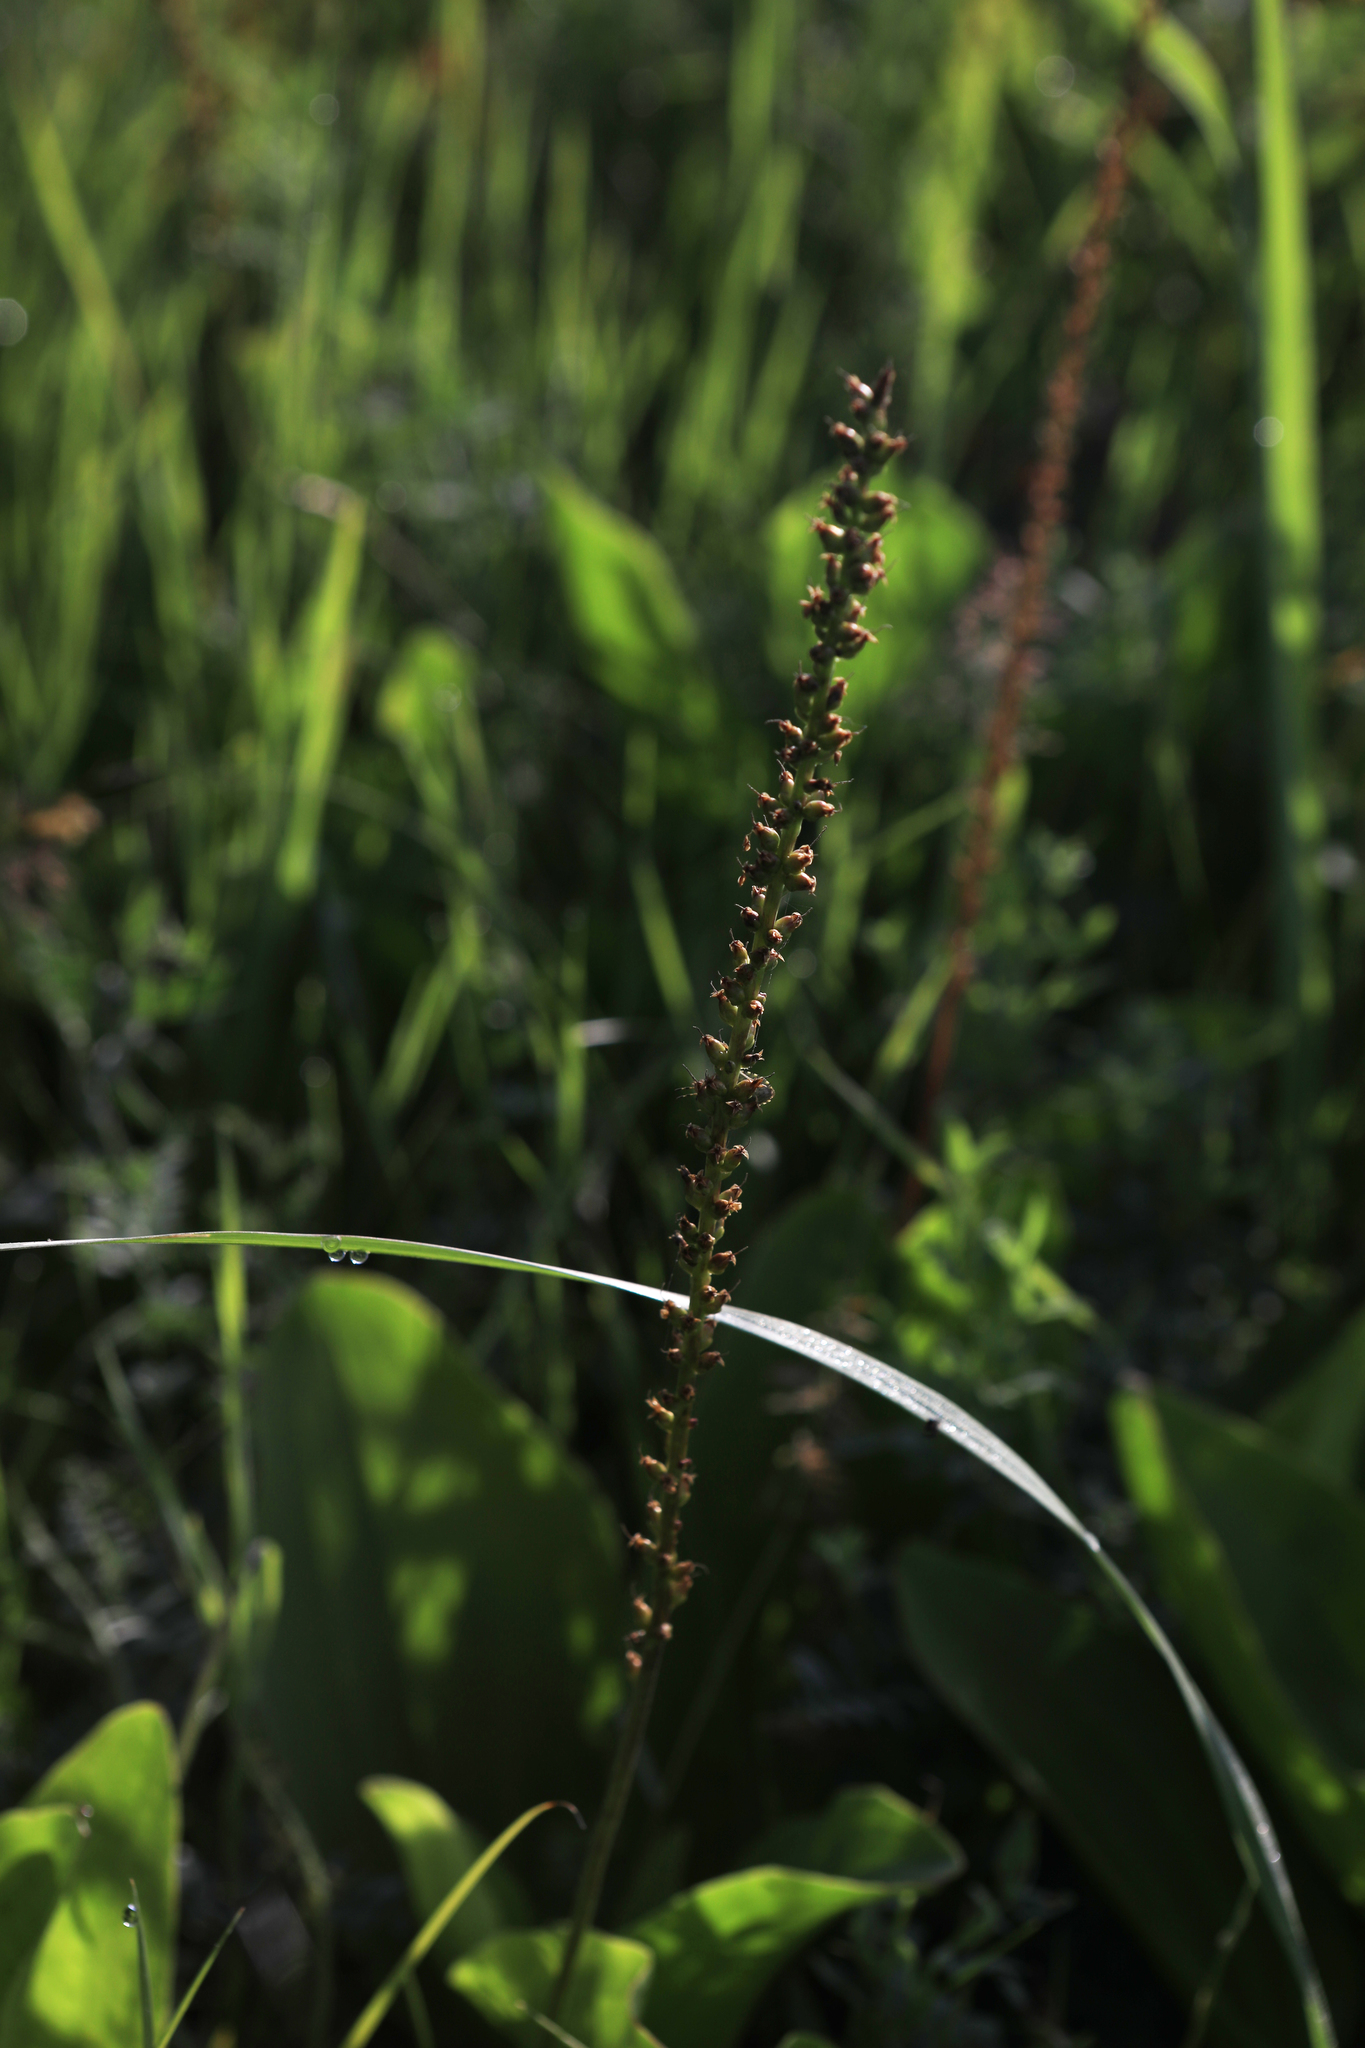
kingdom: Plantae
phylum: Tracheophyta
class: Magnoliopsida
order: Lamiales
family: Plantaginaceae
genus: Plantago
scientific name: Plantago cornuti
